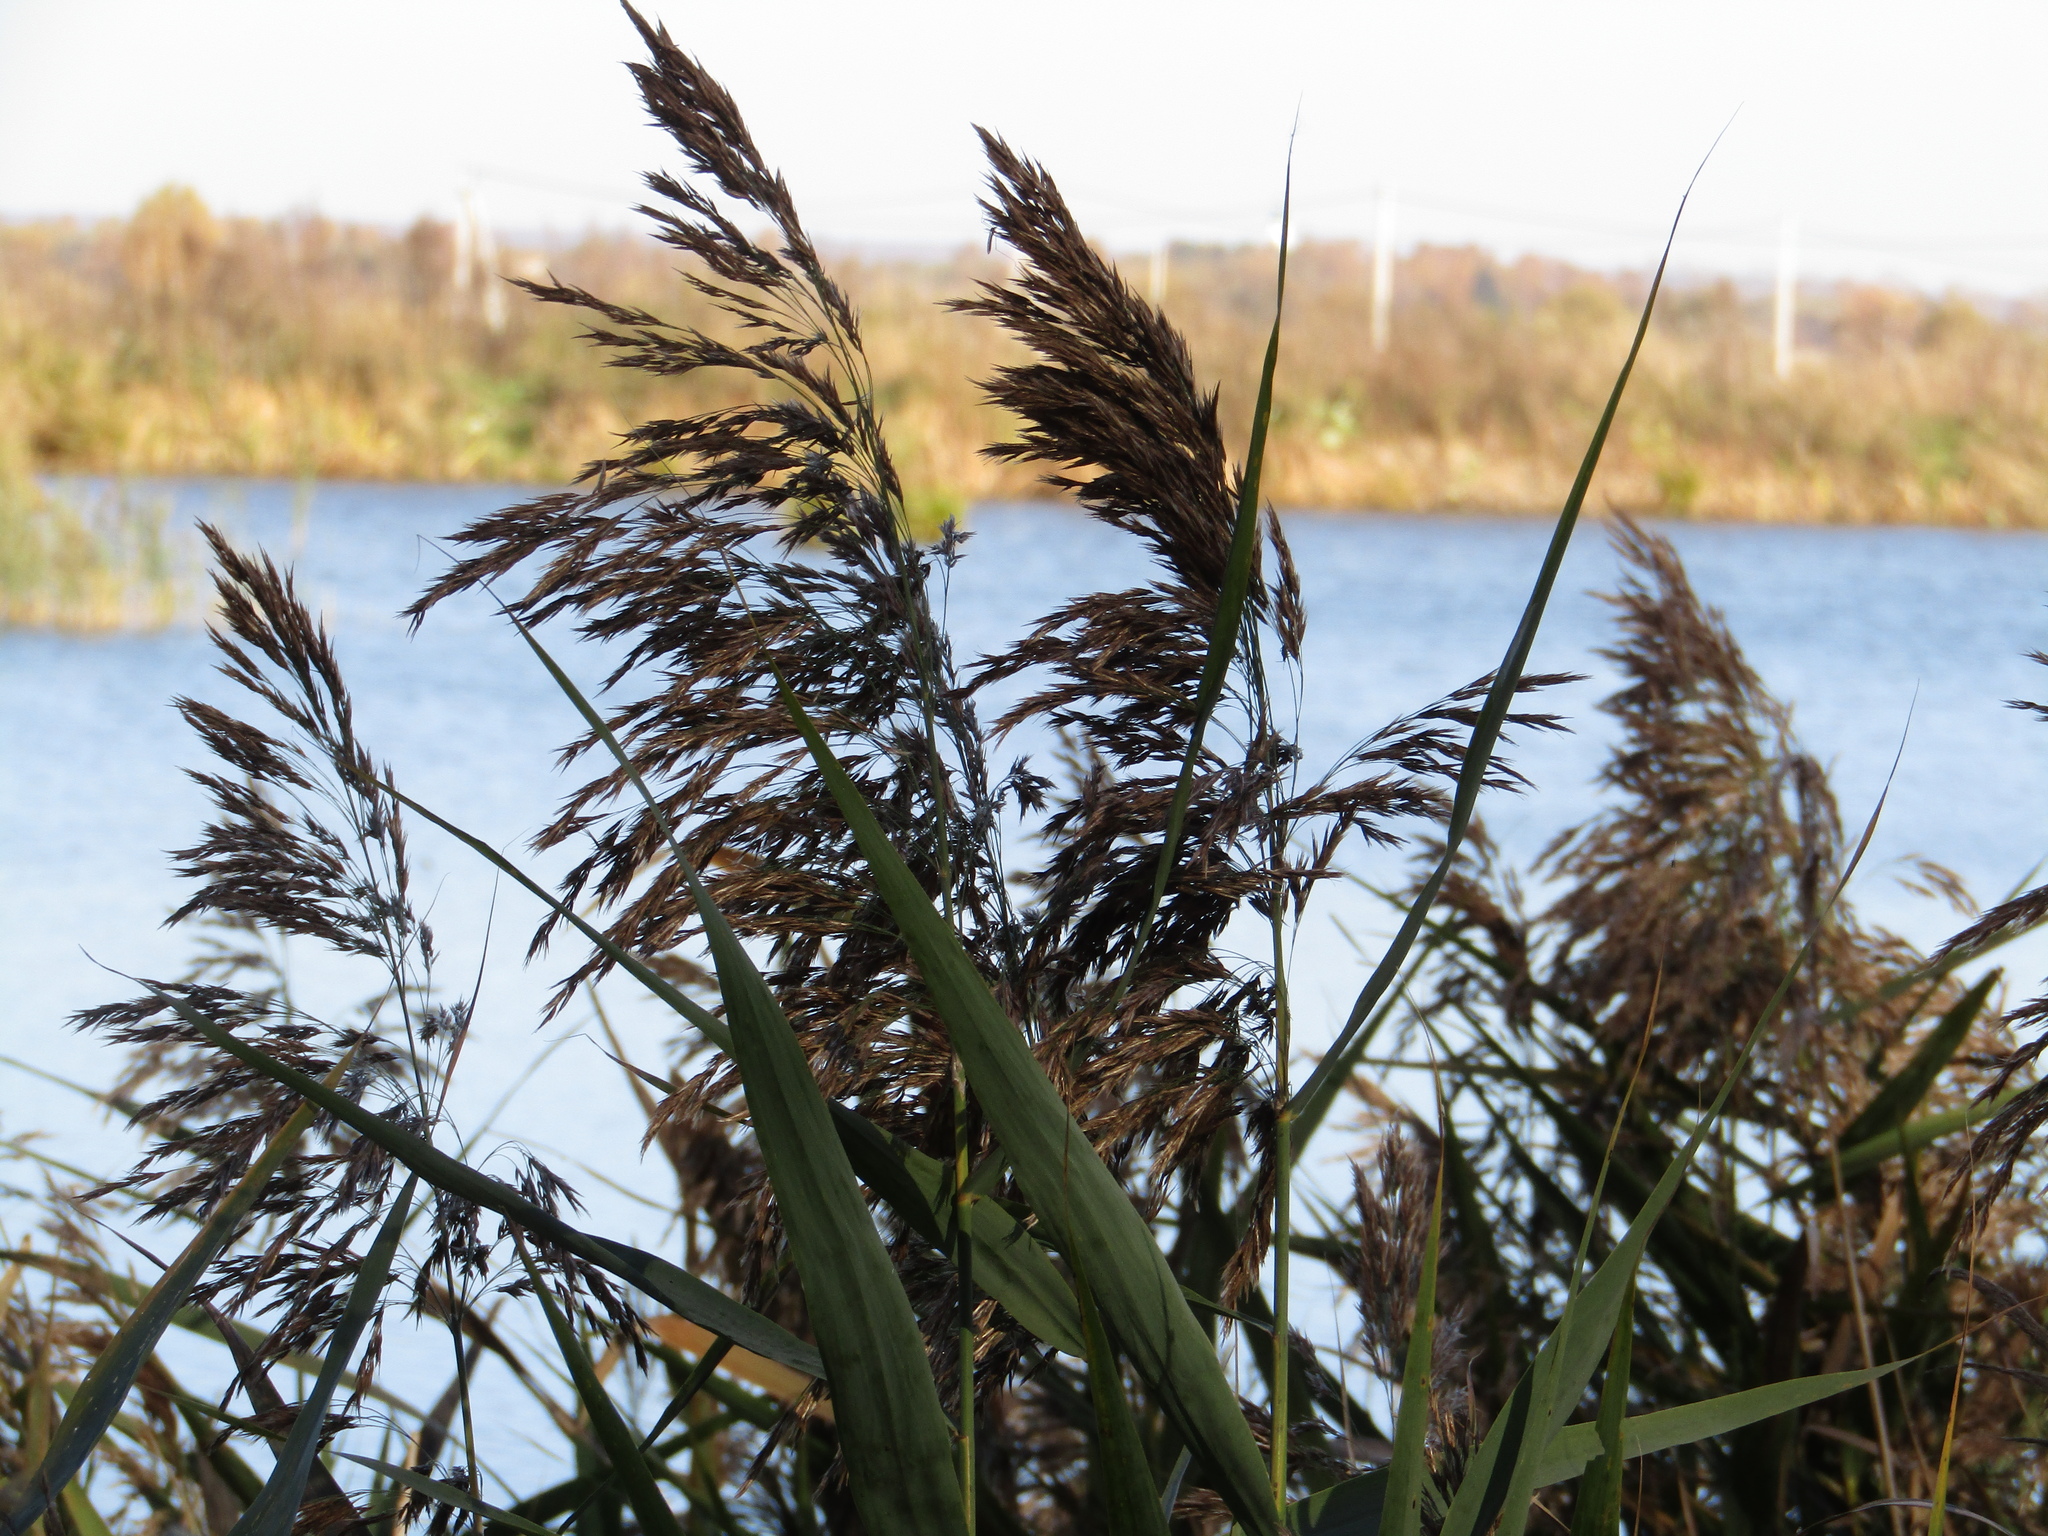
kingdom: Plantae
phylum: Tracheophyta
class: Liliopsida
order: Poales
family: Poaceae
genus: Phragmites
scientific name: Phragmites australis
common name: Common reed
